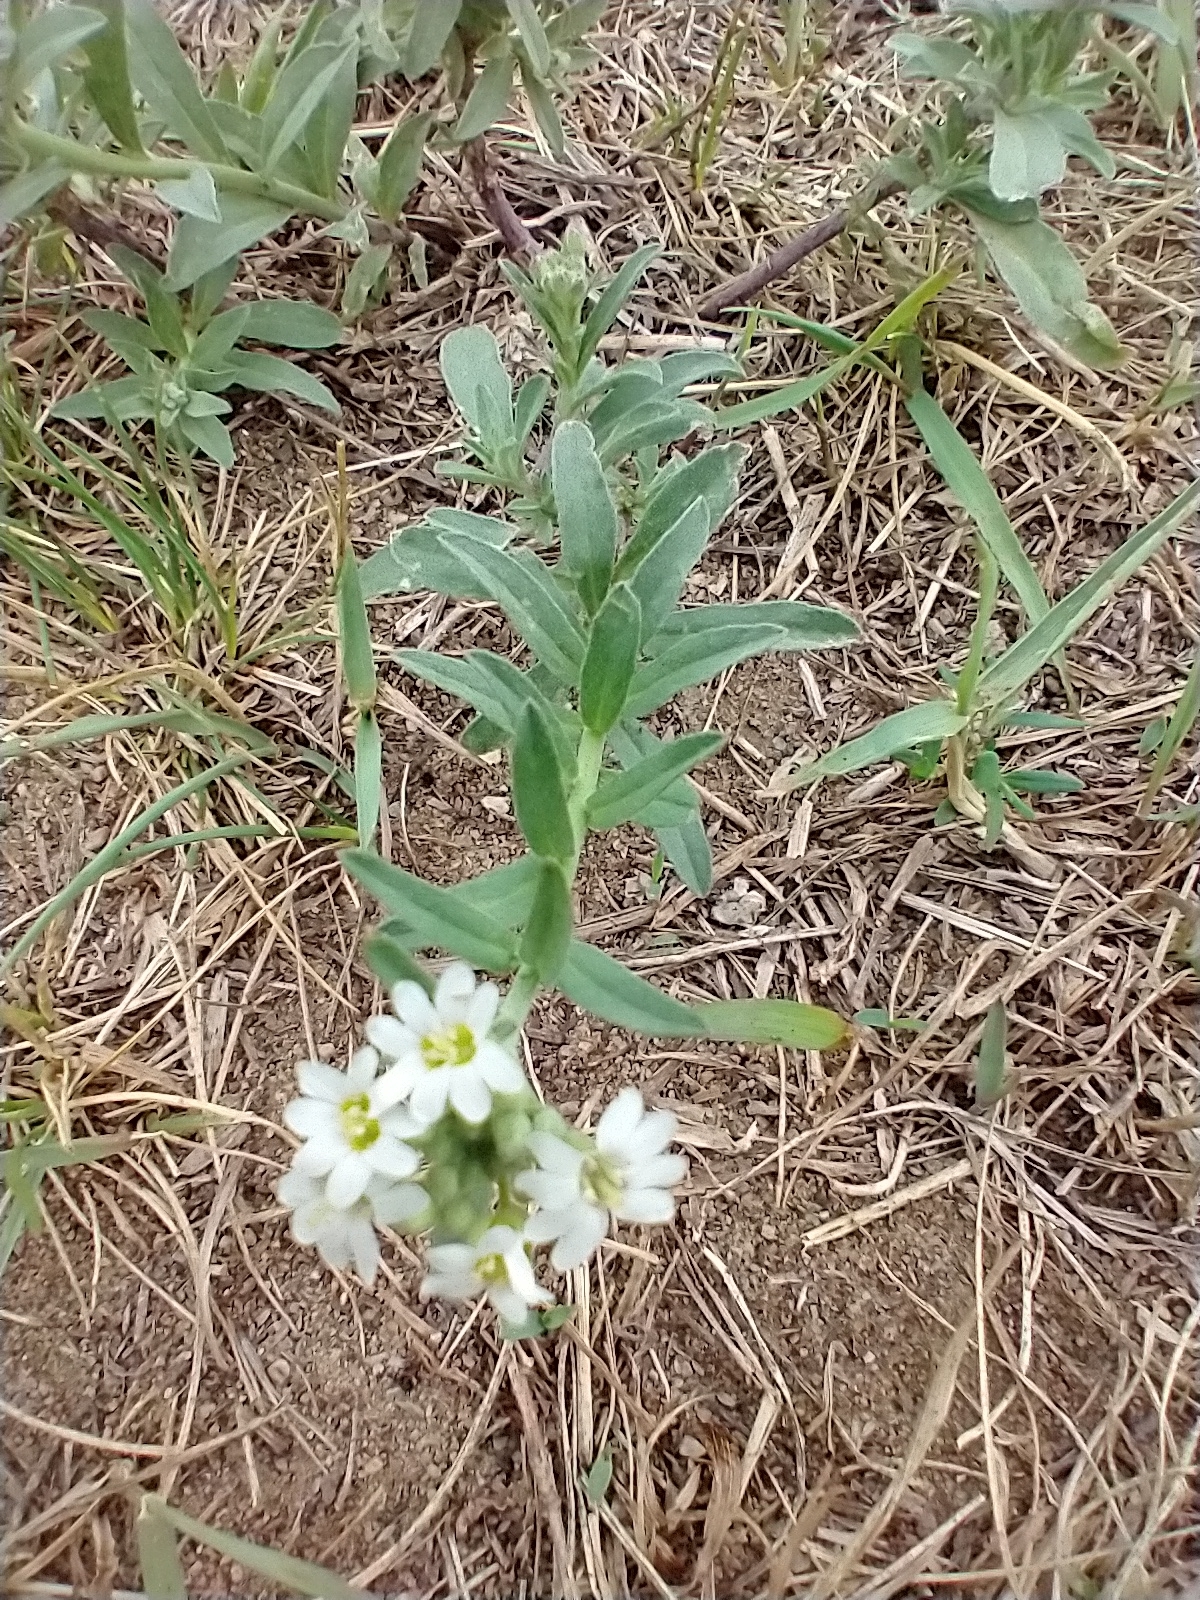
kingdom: Plantae
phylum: Tracheophyta
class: Magnoliopsida
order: Brassicales
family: Brassicaceae
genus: Berteroa
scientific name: Berteroa incana
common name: Hoary alison
